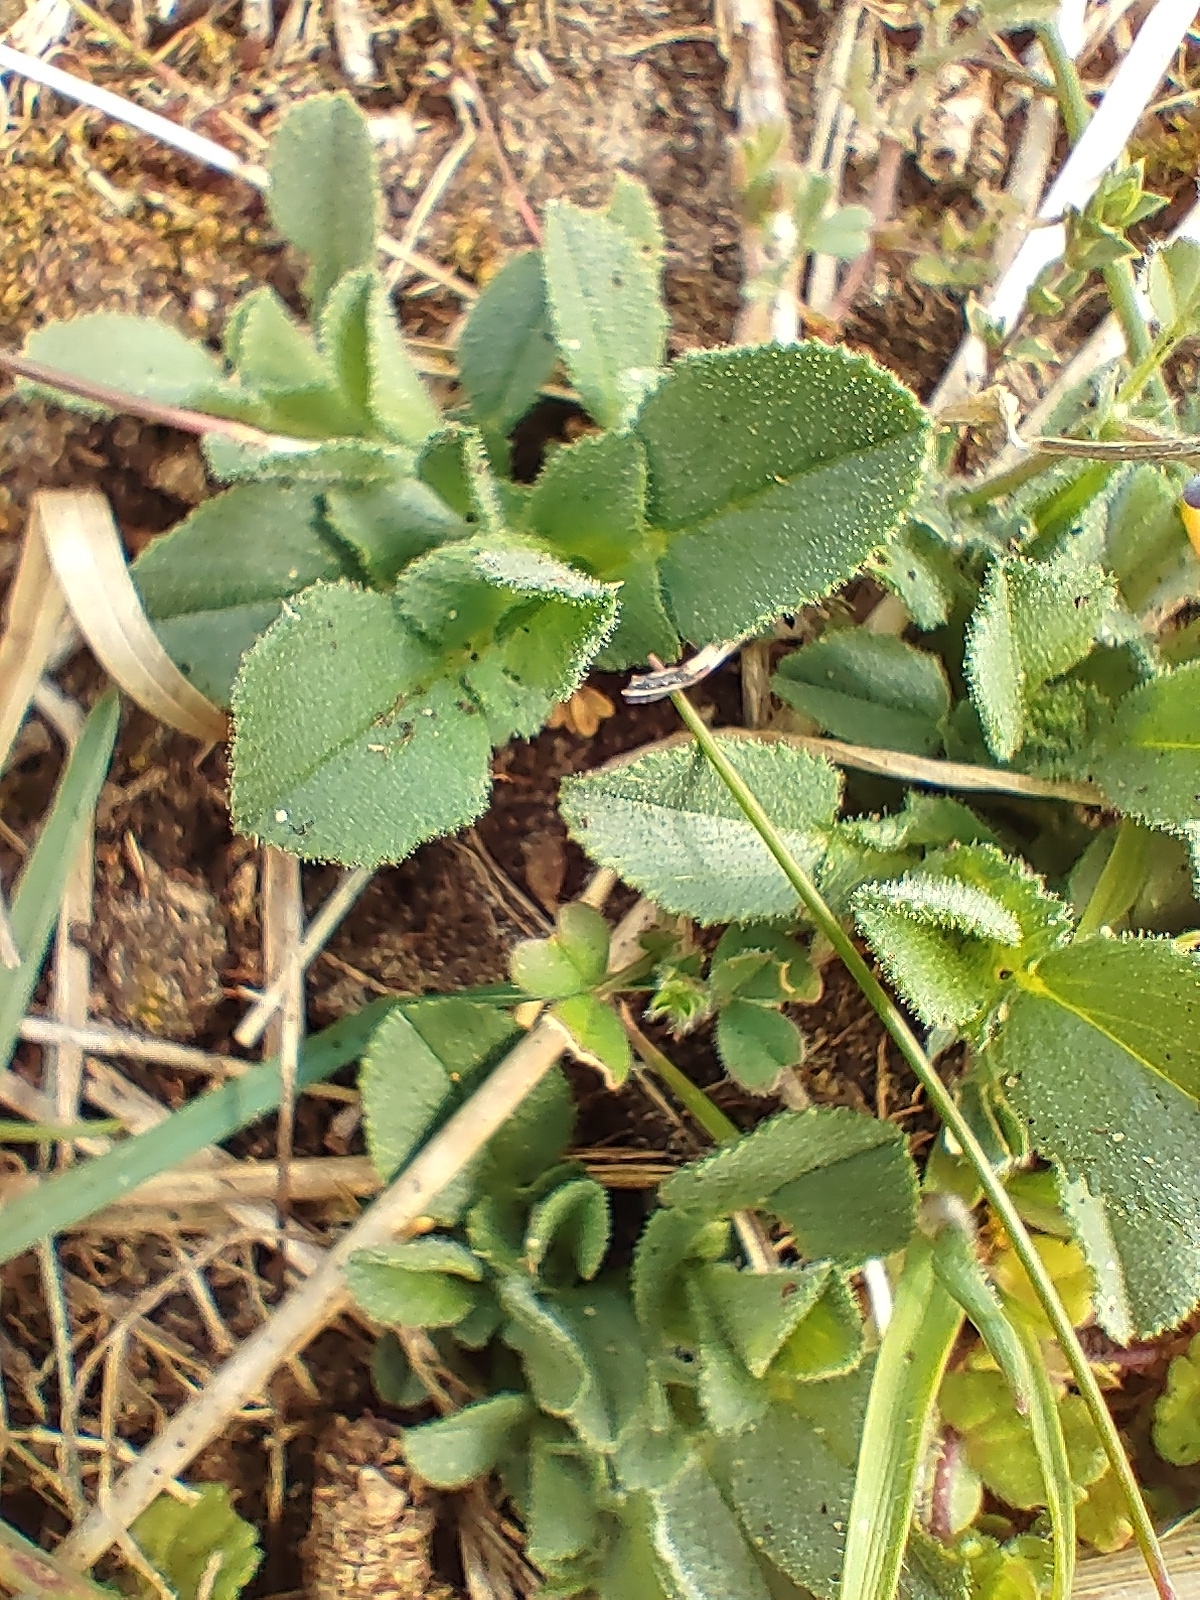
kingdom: Plantae
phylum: Tracheophyta
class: Magnoliopsida
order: Fabales
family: Fabaceae
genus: Ononis
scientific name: Ononis spinosa
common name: Spiny restharrow
